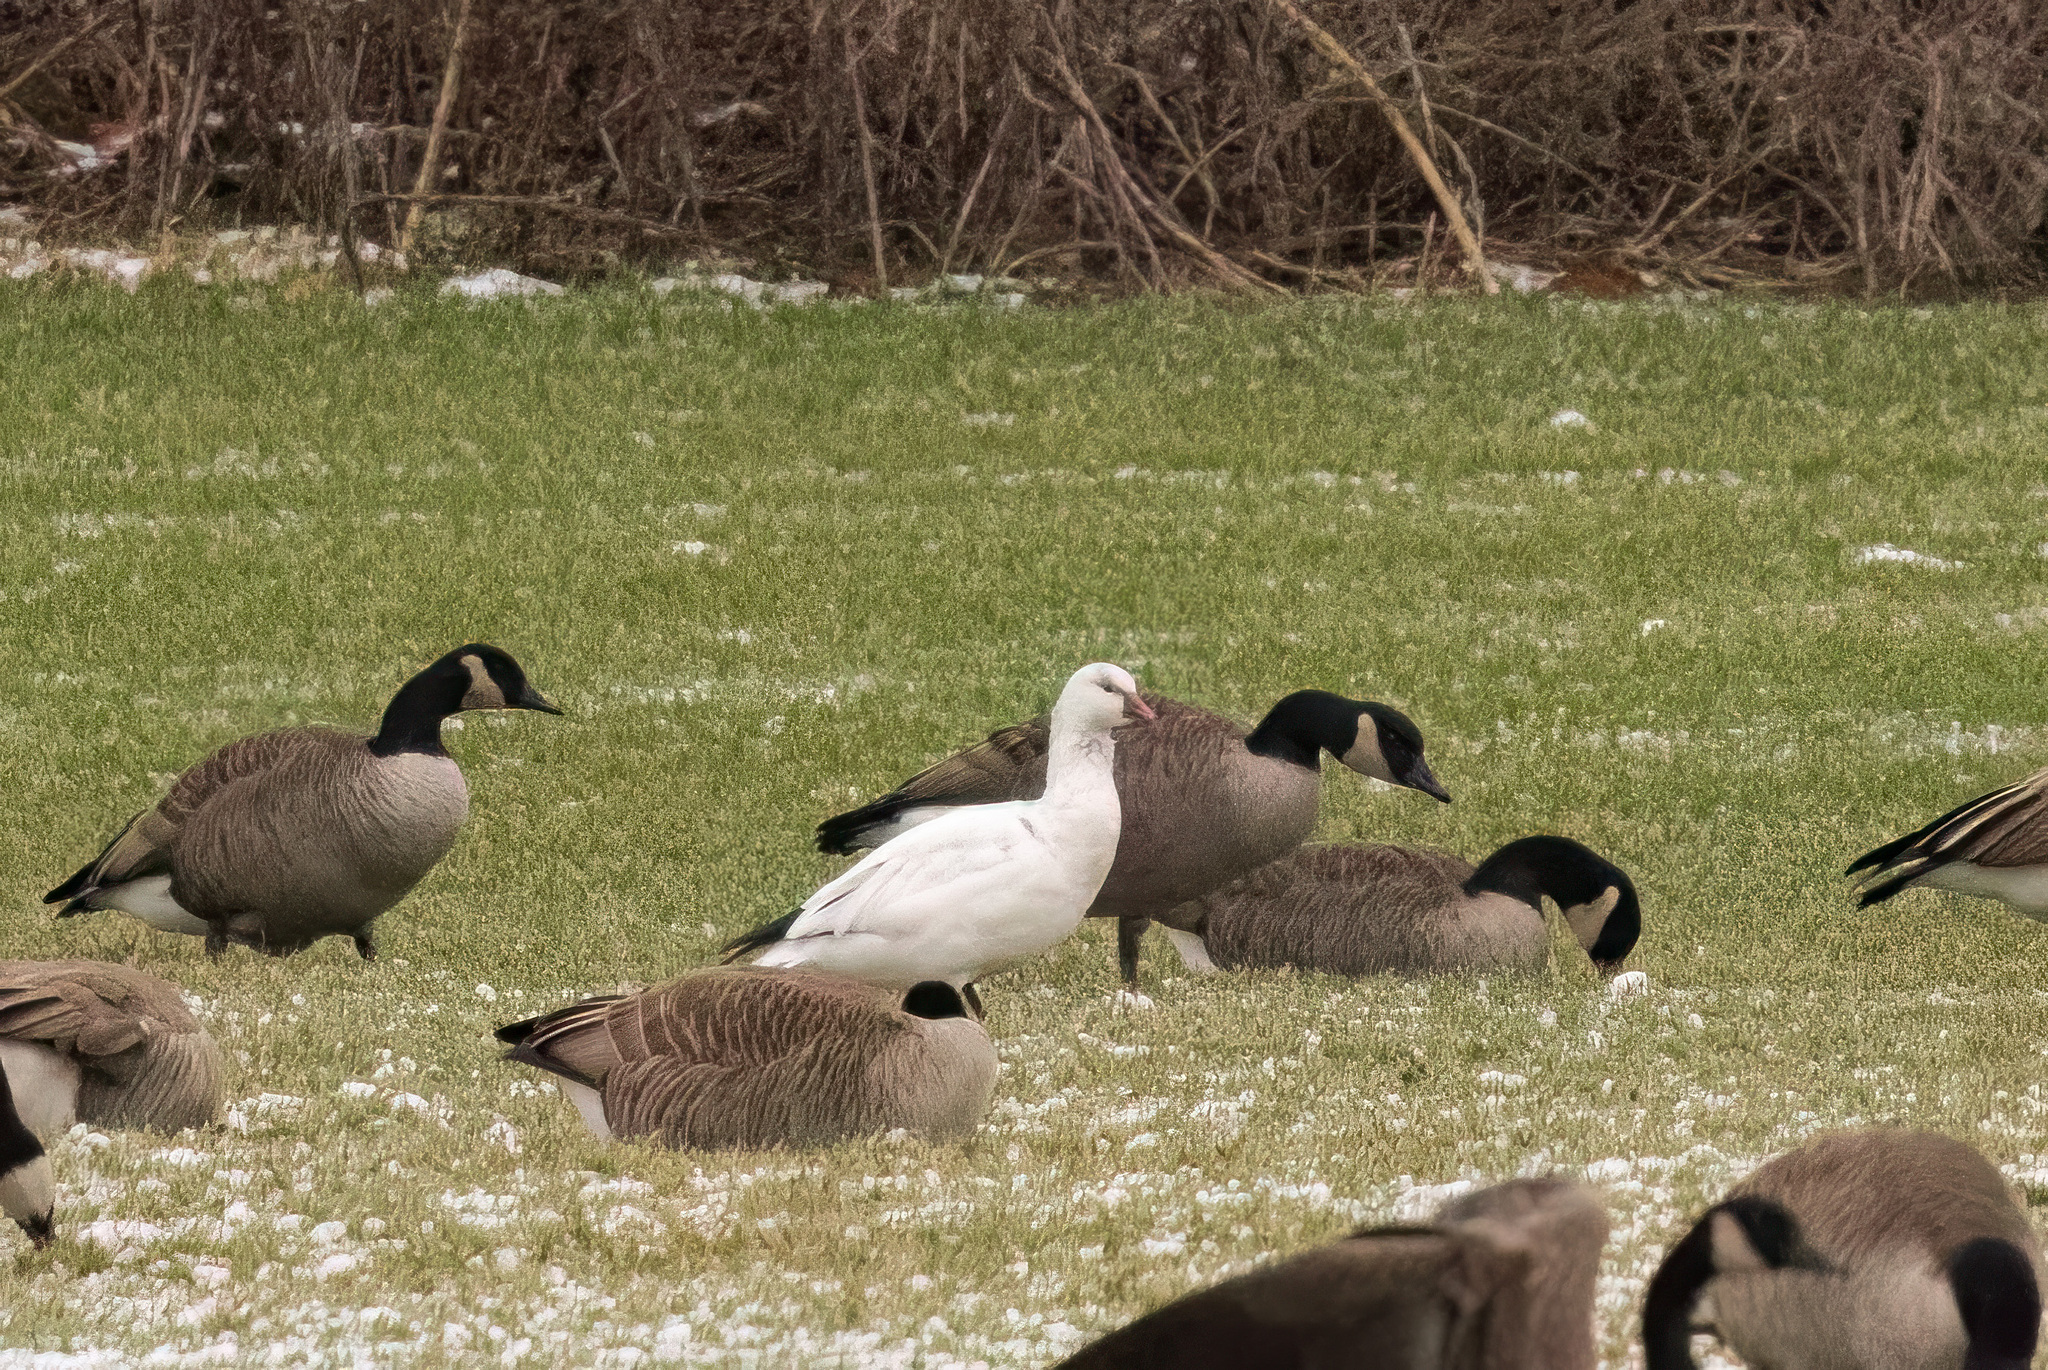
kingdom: Animalia
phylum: Chordata
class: Aves
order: Anseriformes
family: Anatidae
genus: Anser
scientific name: Anser rossii
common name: Ross's goose
